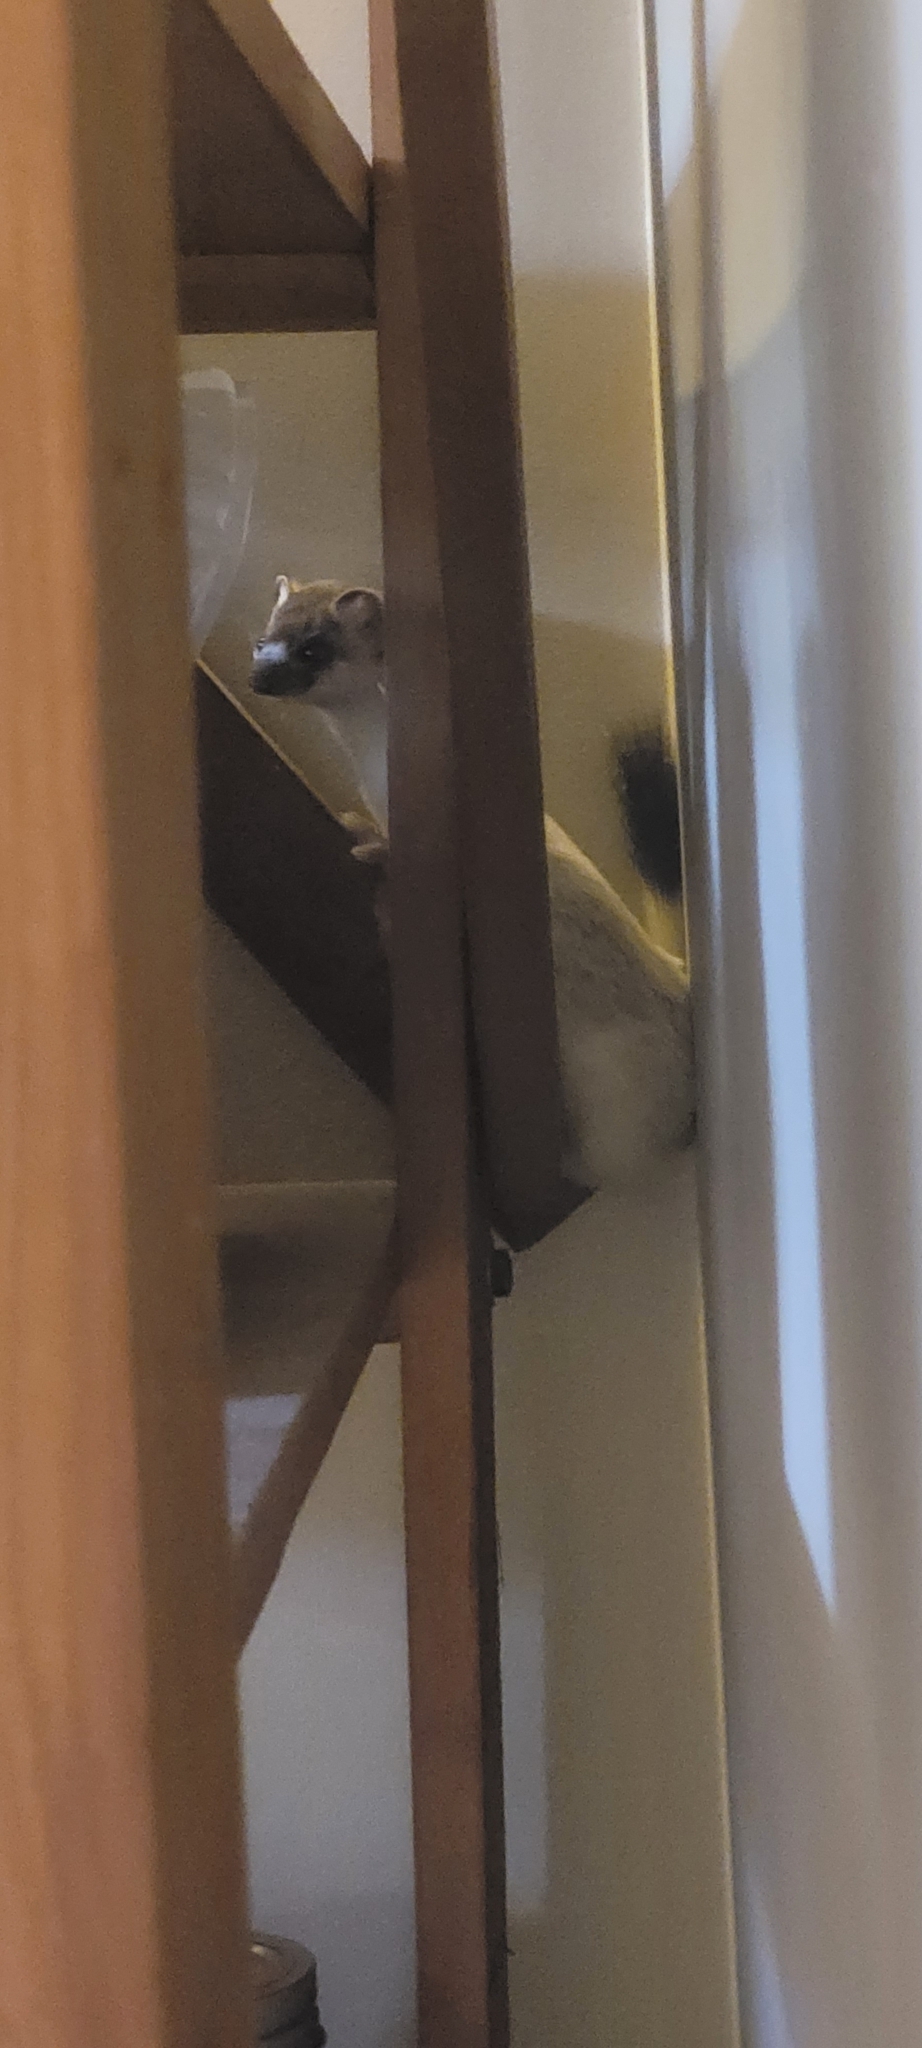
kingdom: Animalia
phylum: Chordata
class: Mammalia
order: Carnivora
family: Mustelidae
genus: Mustela
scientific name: Mustela erminea
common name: Stoat
